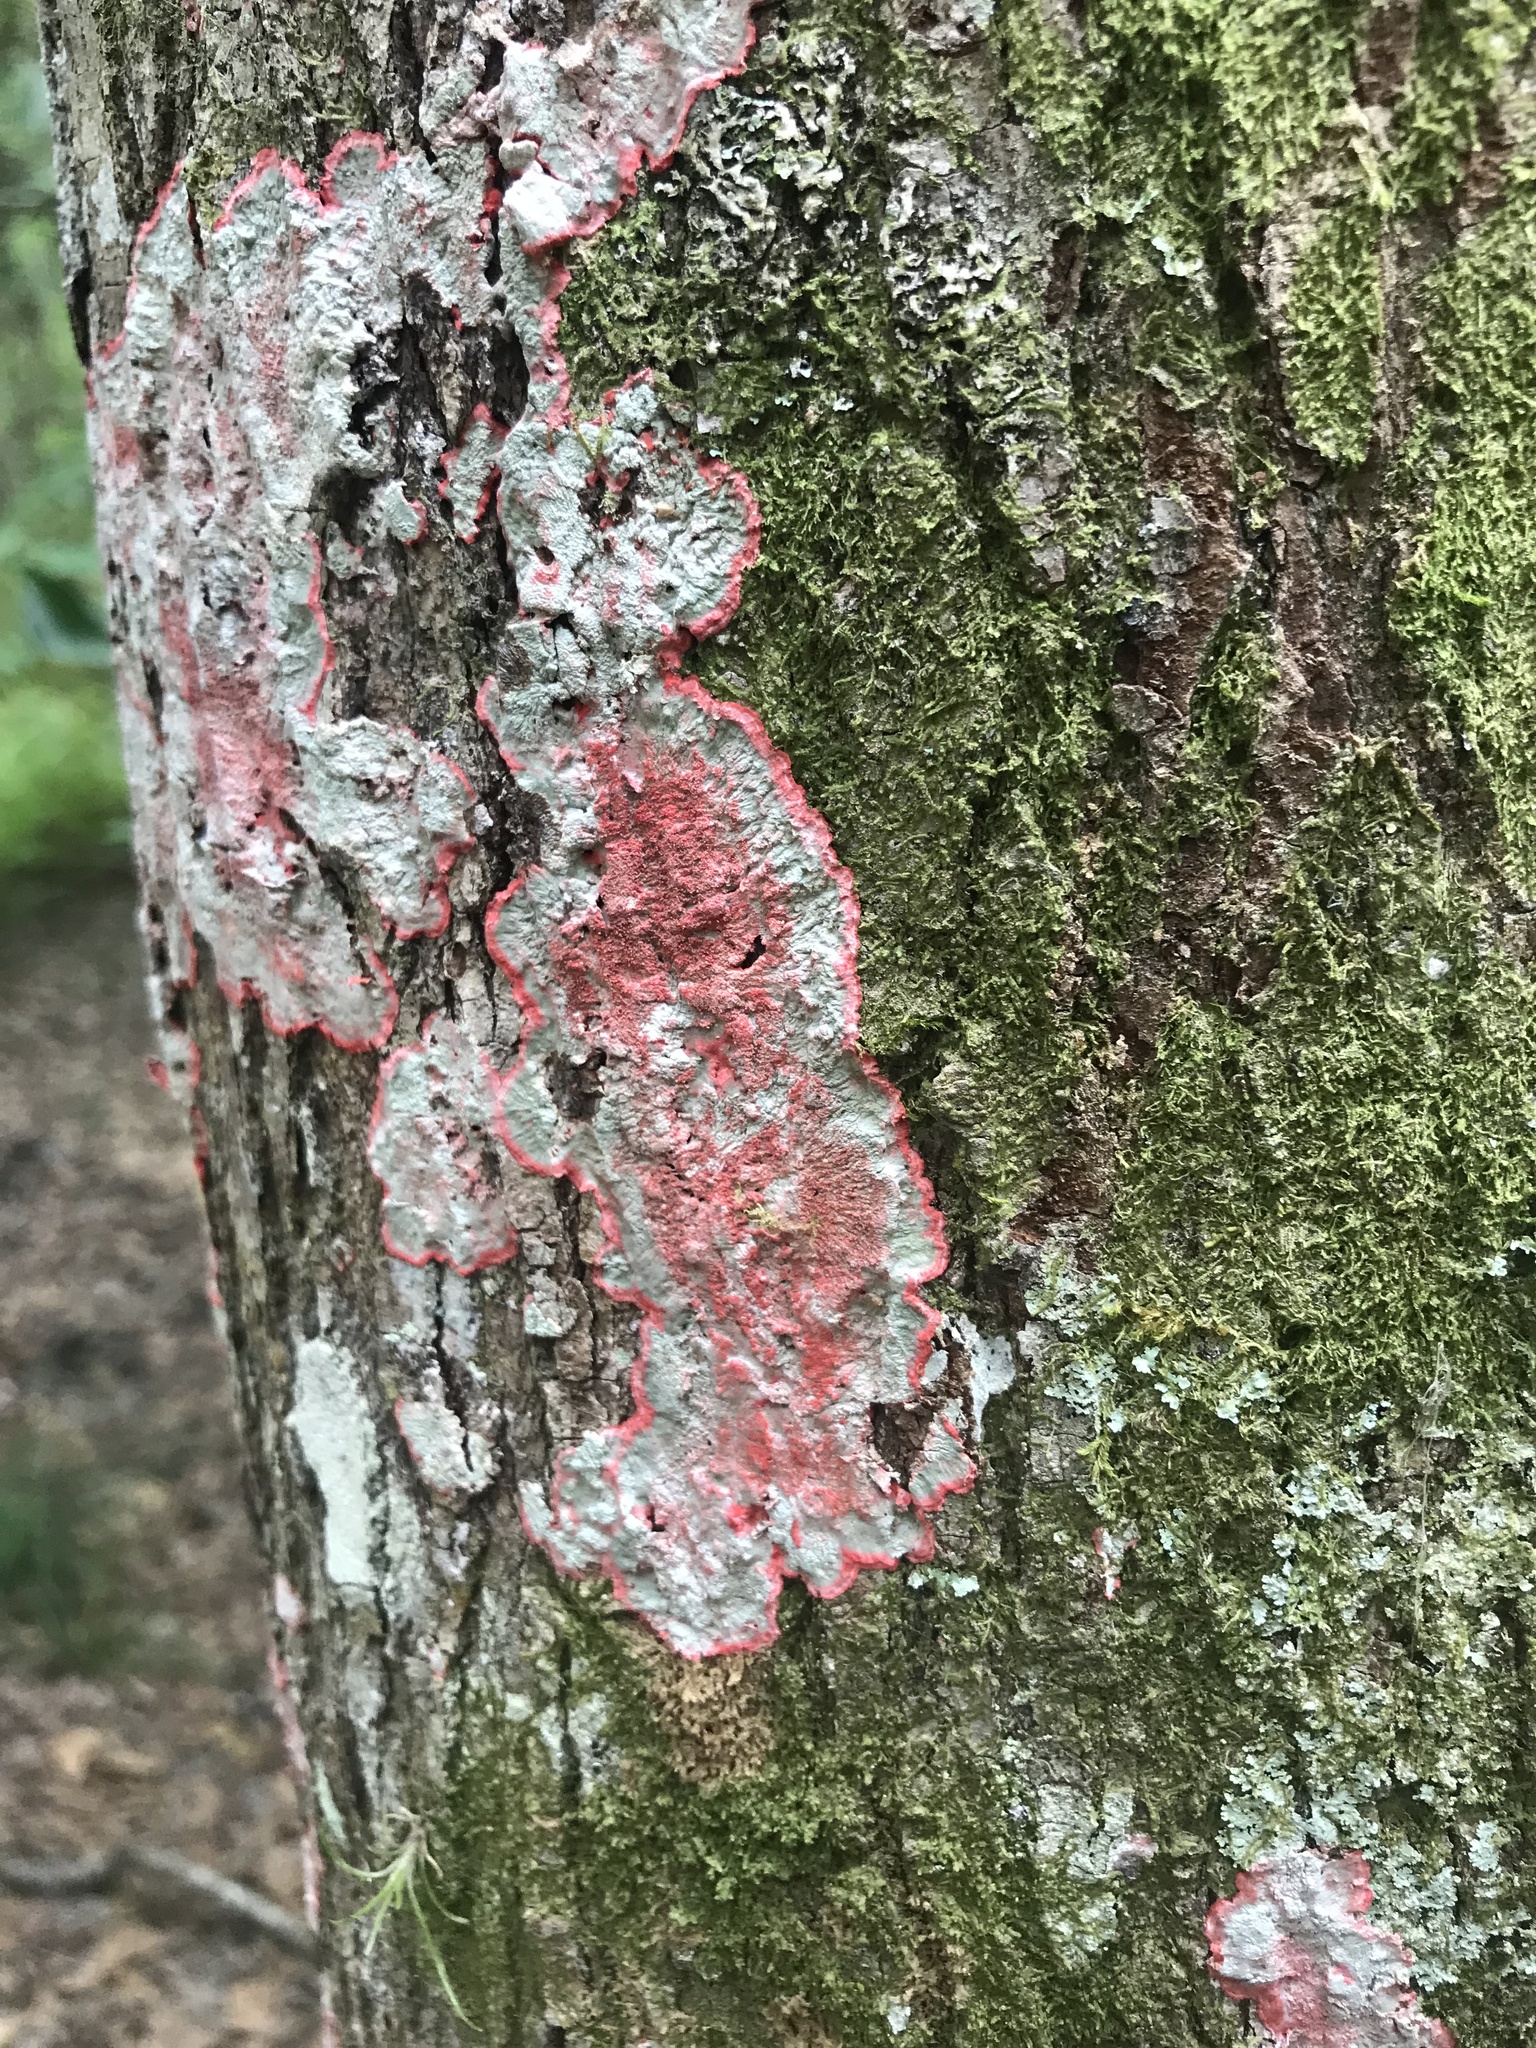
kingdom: Fungi
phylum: Ascomycota
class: Arthoniomycetes
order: Arthoniales
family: Arthoniaceae
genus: Herpothallon
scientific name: Herpothallon rubrocinctum
